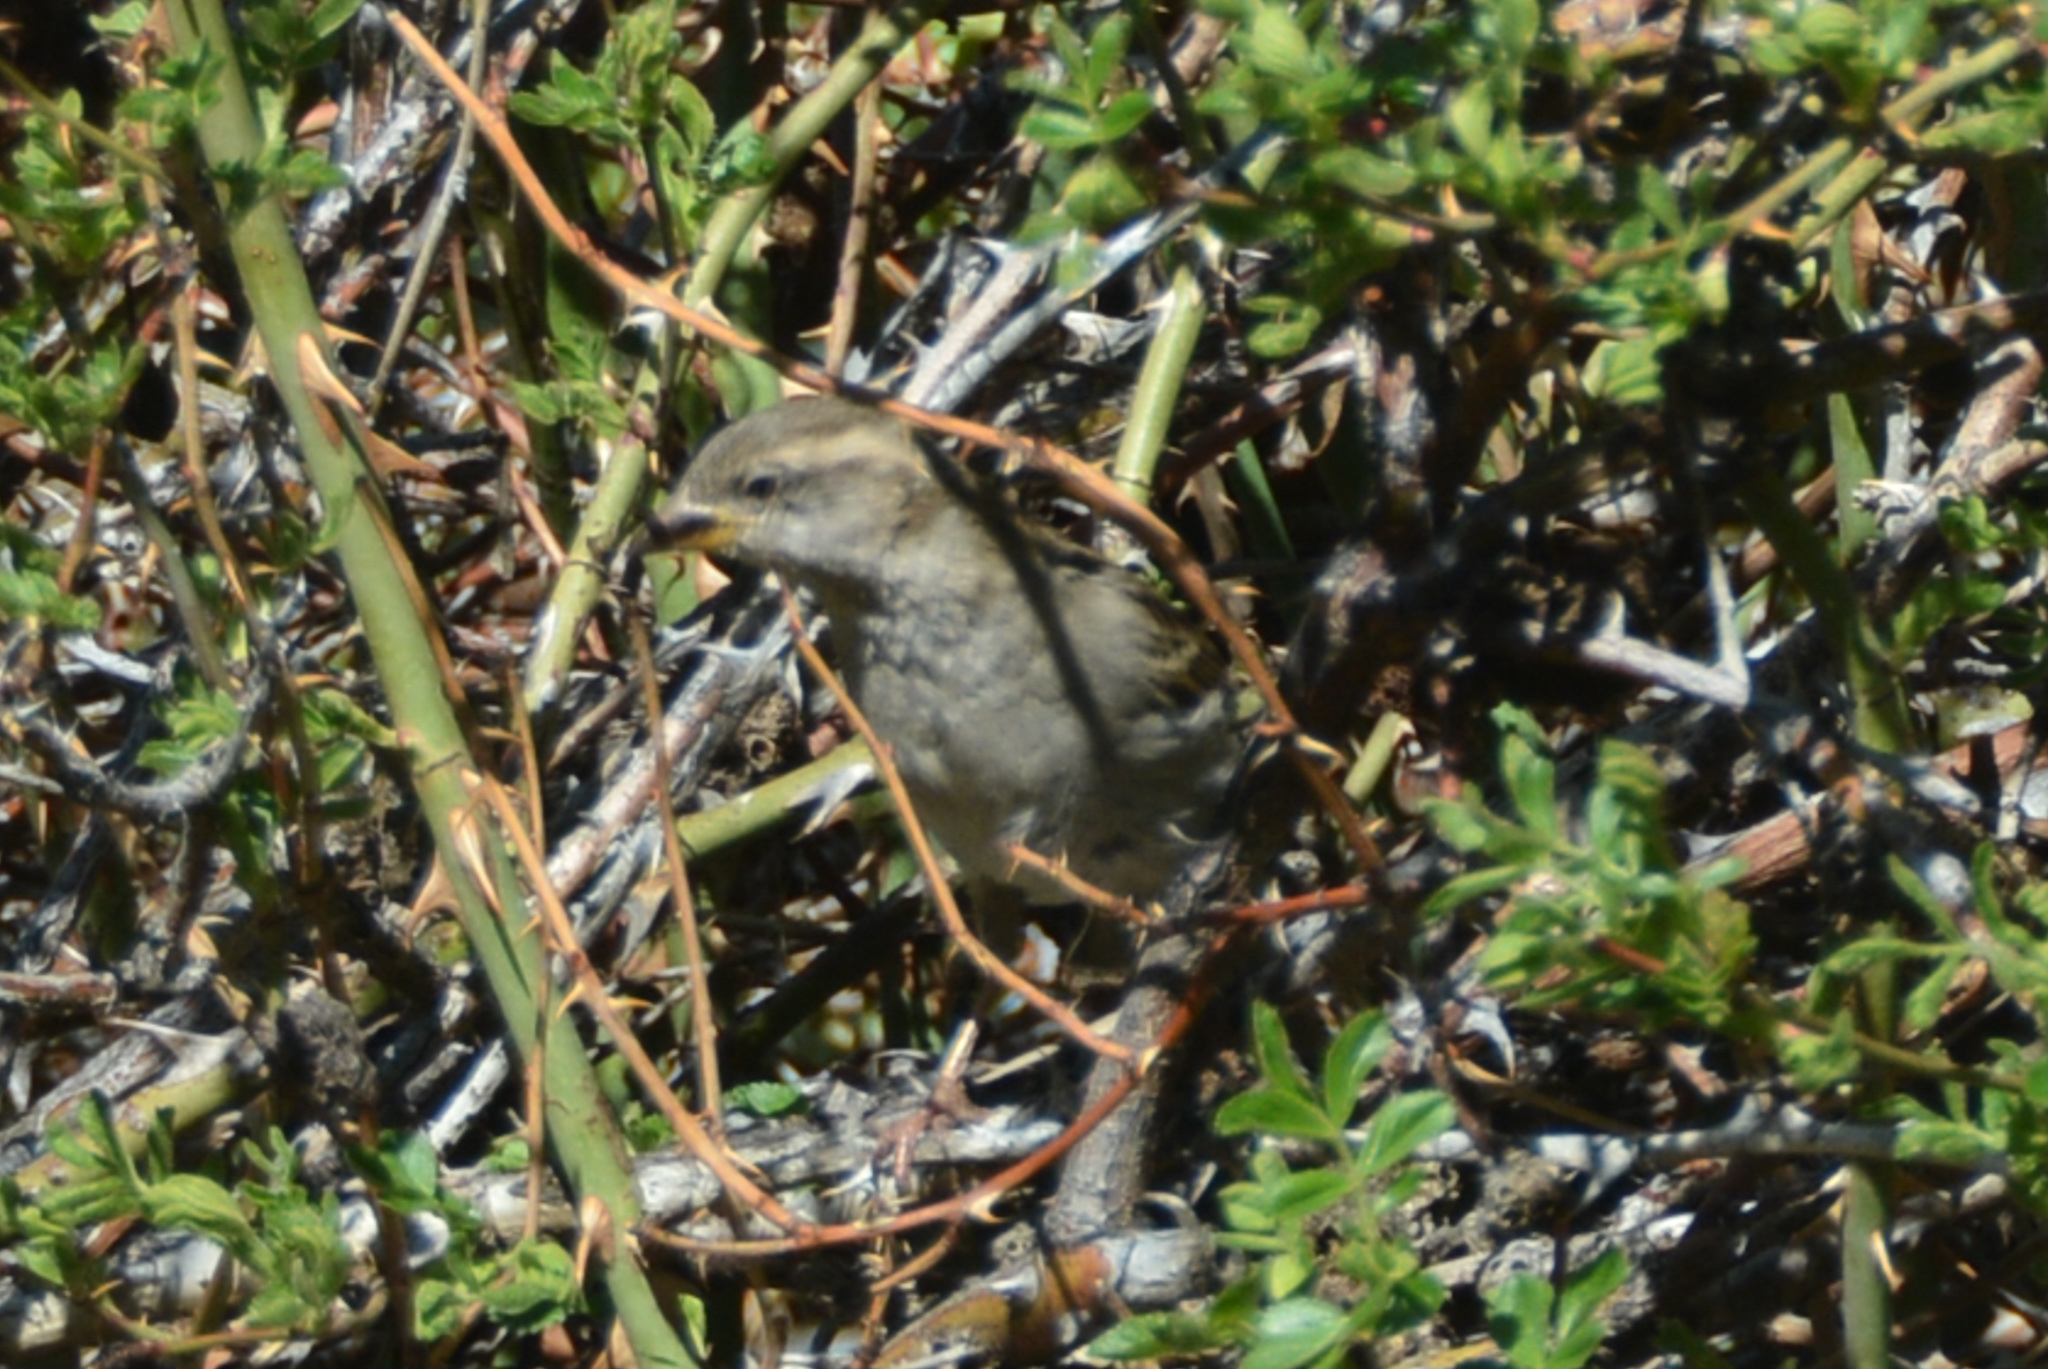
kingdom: Animalia
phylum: Chordata
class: Aves
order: Passeriformes
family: Passeridae
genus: Passer
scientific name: Passer domesticus
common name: House sparrow
